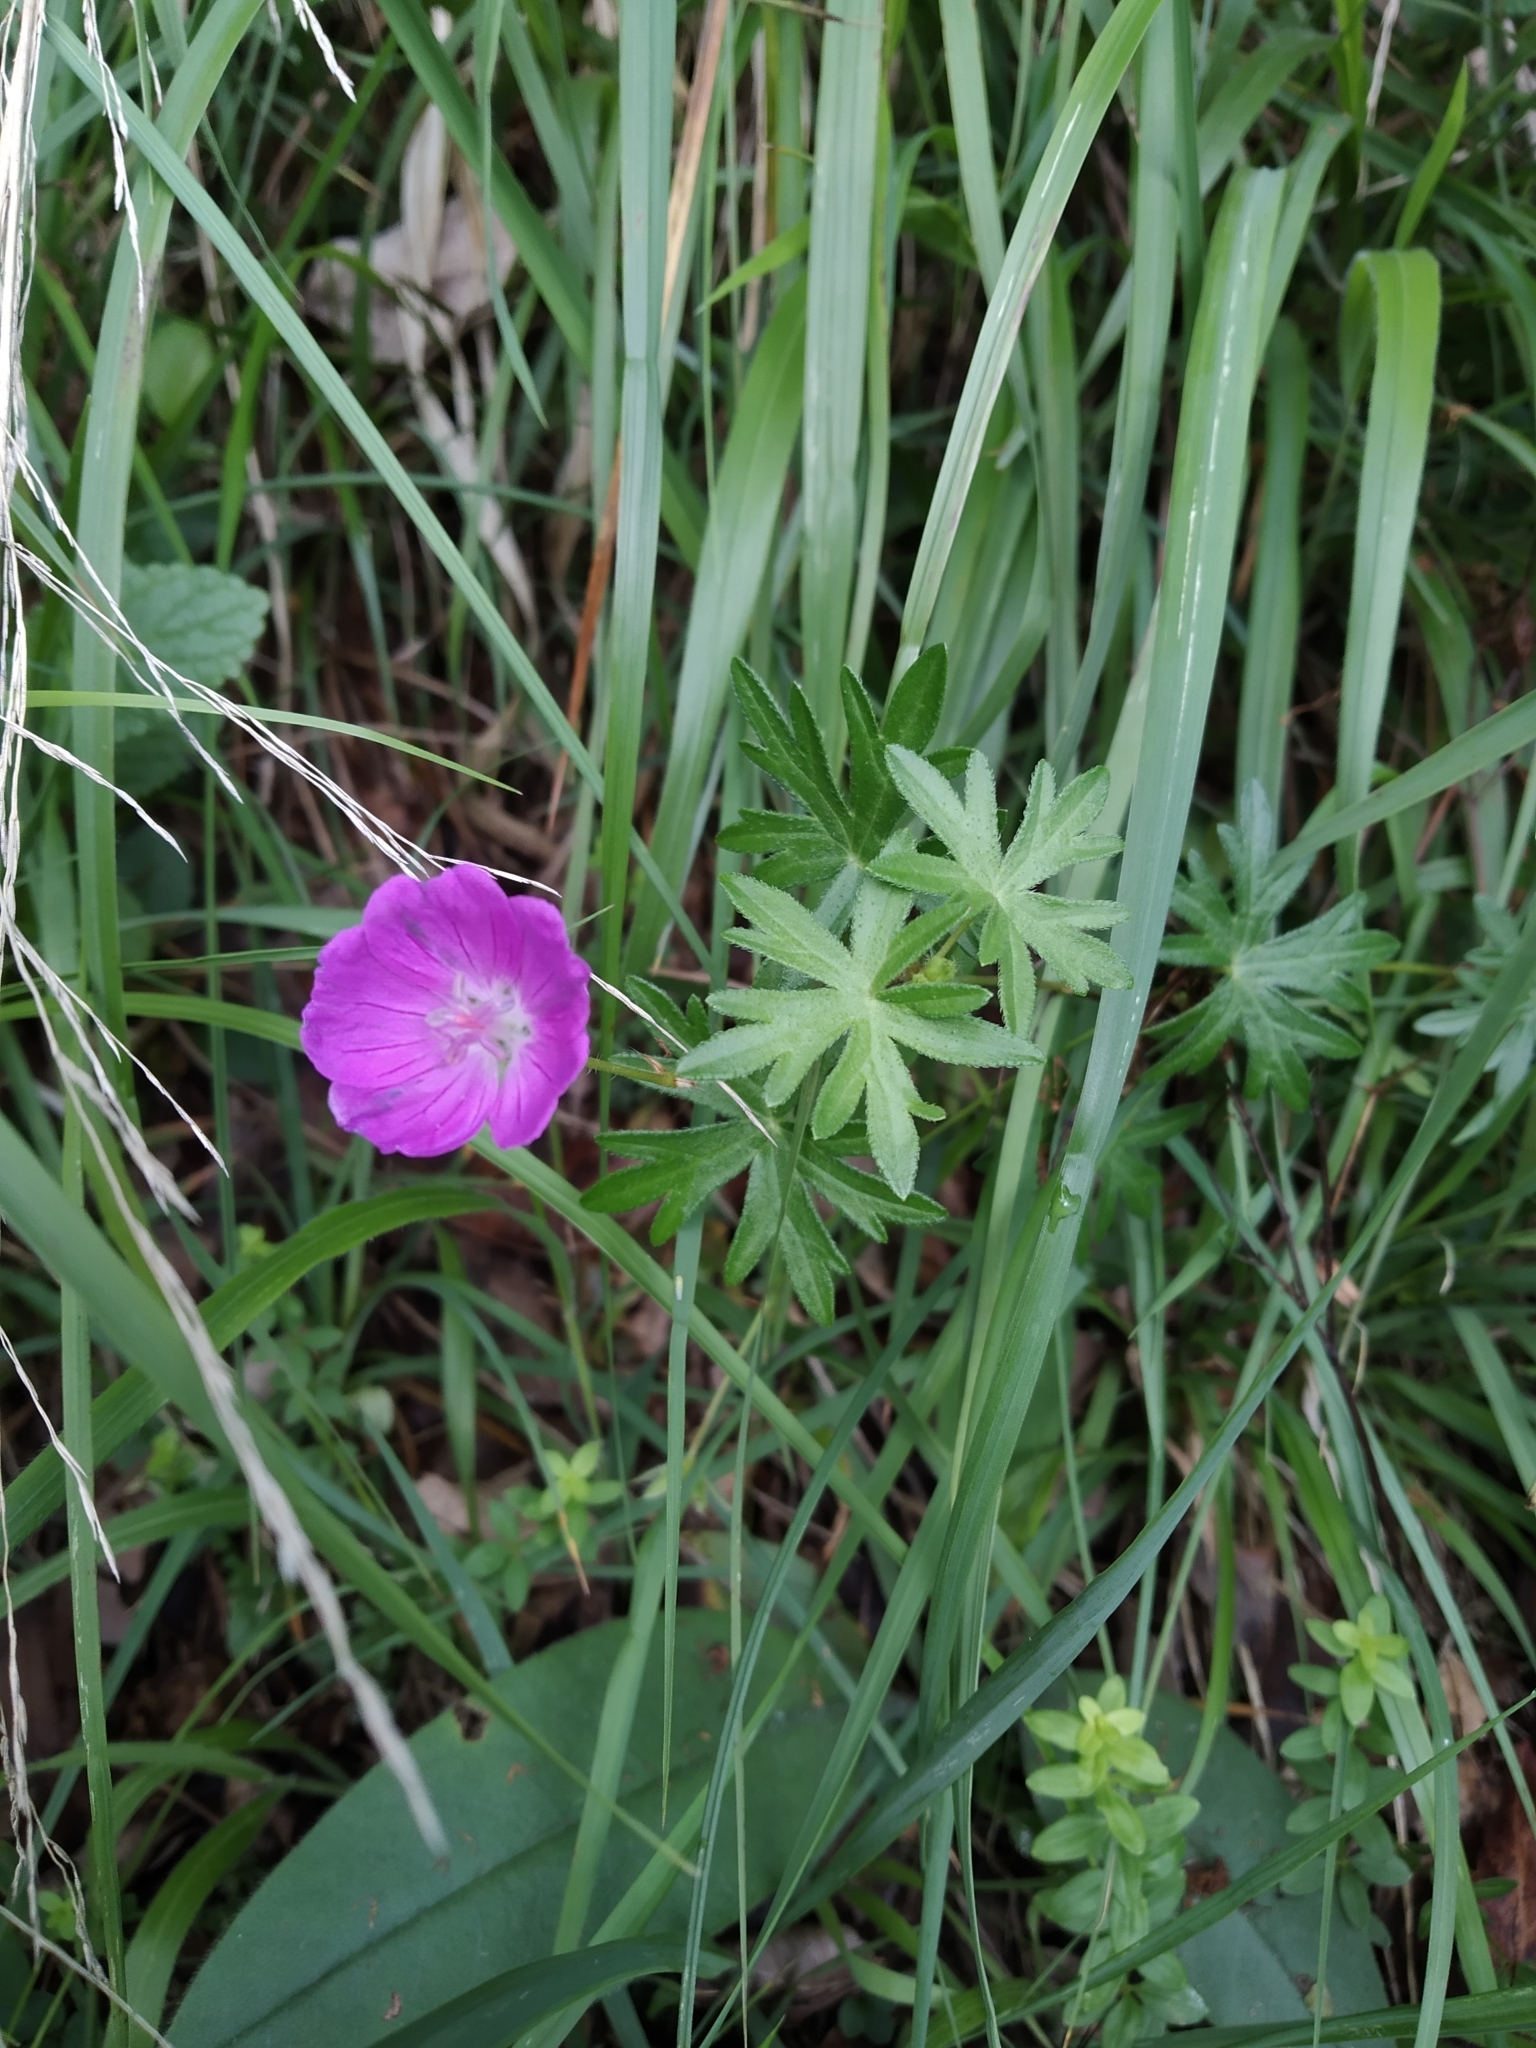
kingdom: Plantae
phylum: Tracheophyta
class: Magnoliopsida
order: Geraniales
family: Geraniaceae
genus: Geranium
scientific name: Geranium sanguineum
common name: Bloody crane's-bill
